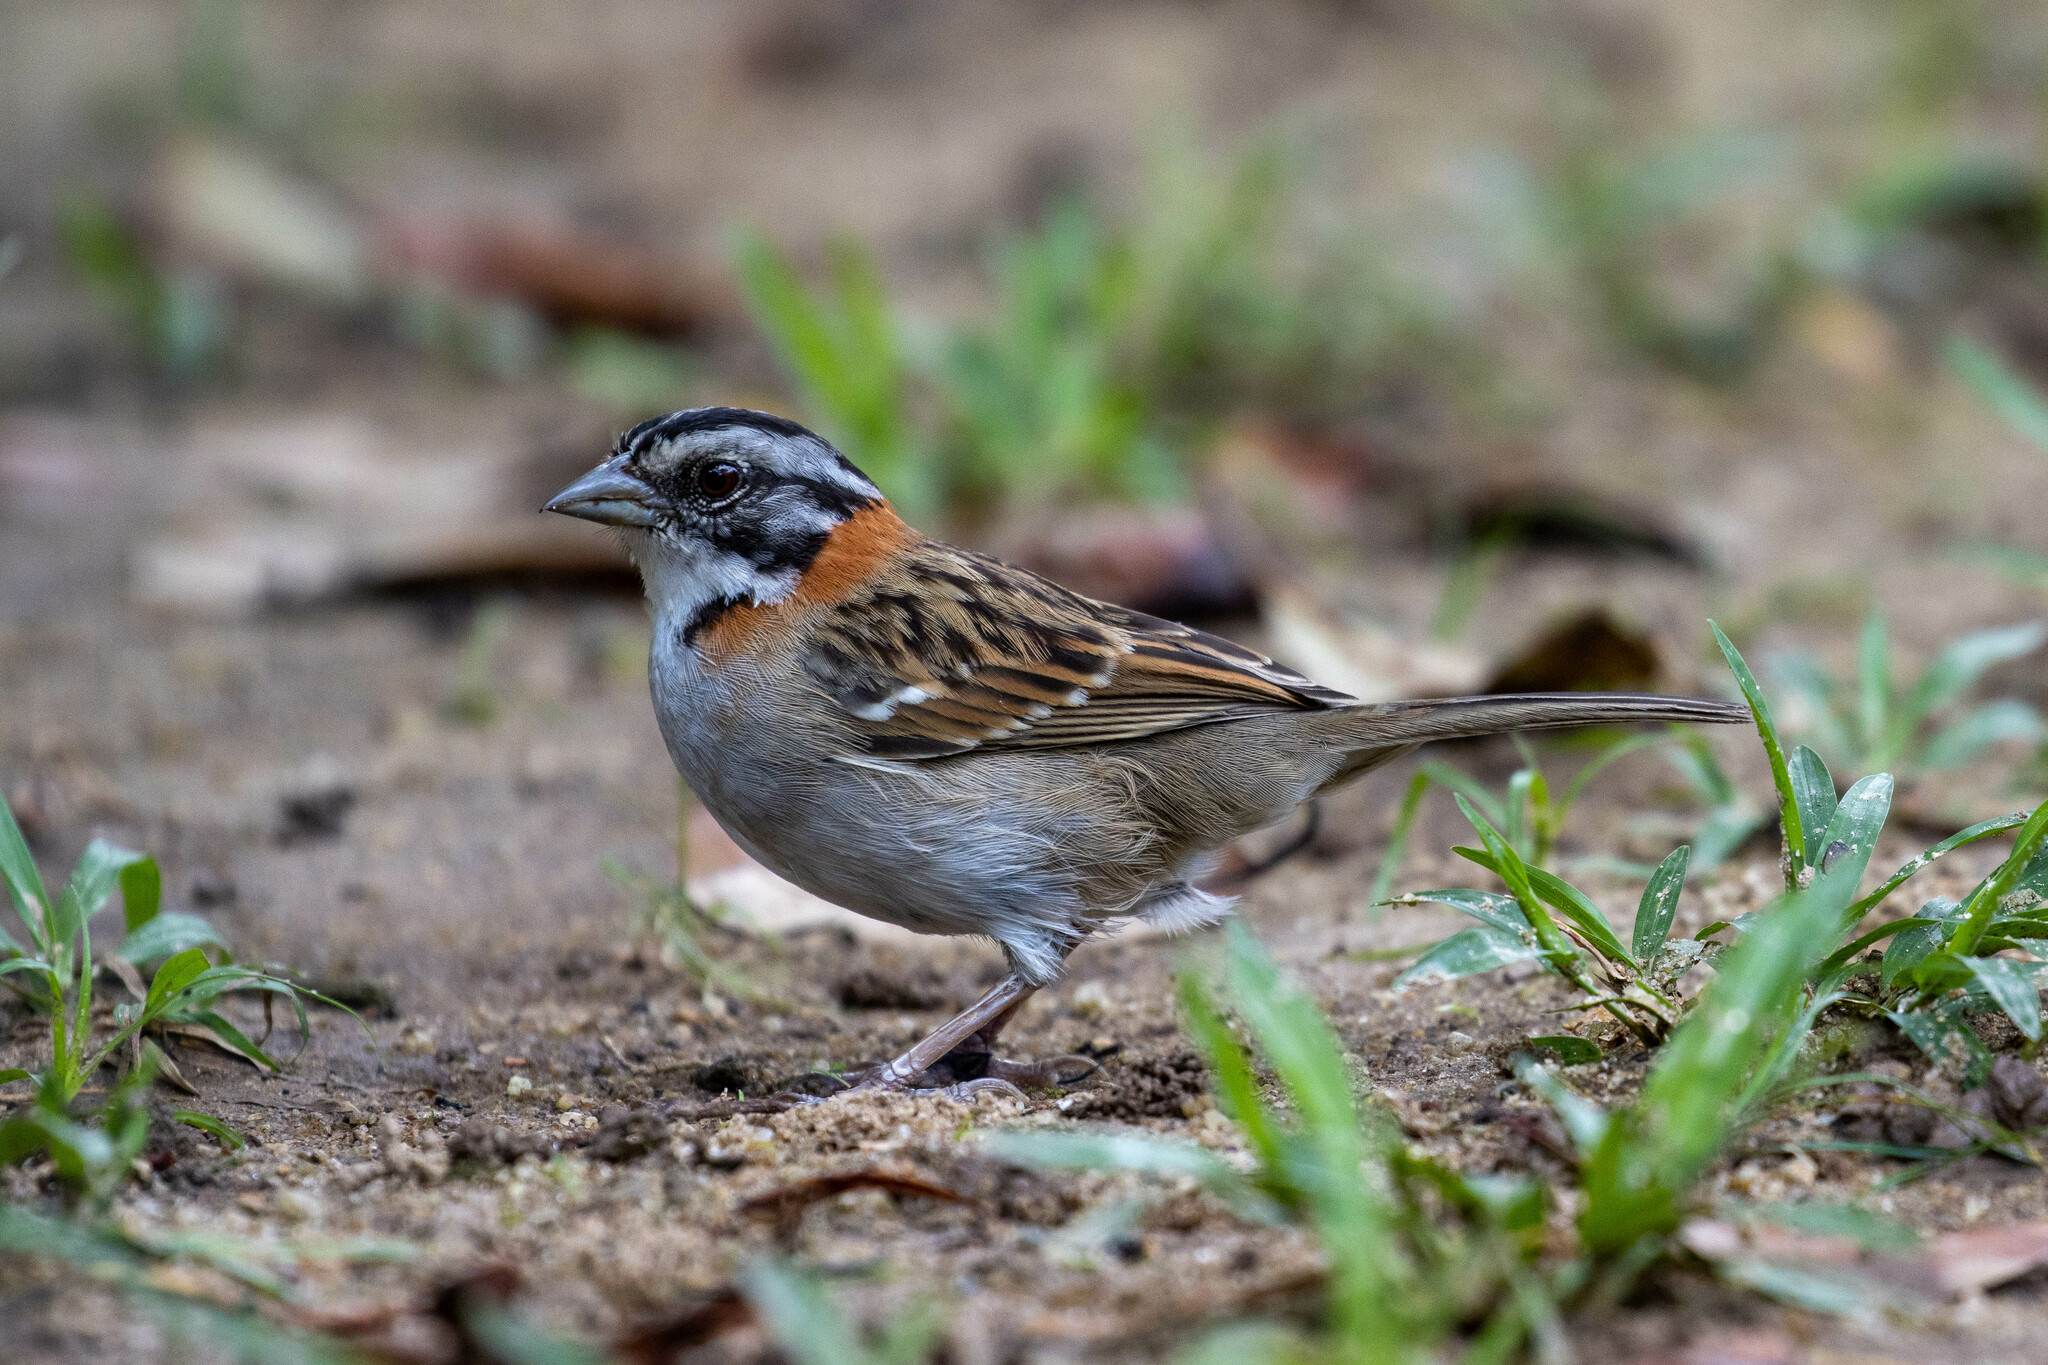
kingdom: Animalia
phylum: Chordata
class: Aves
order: Passeriformes
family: Passerellidae
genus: Zonotrichia
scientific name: Zonotrichia capensis
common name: Rufous-collared sparrow
